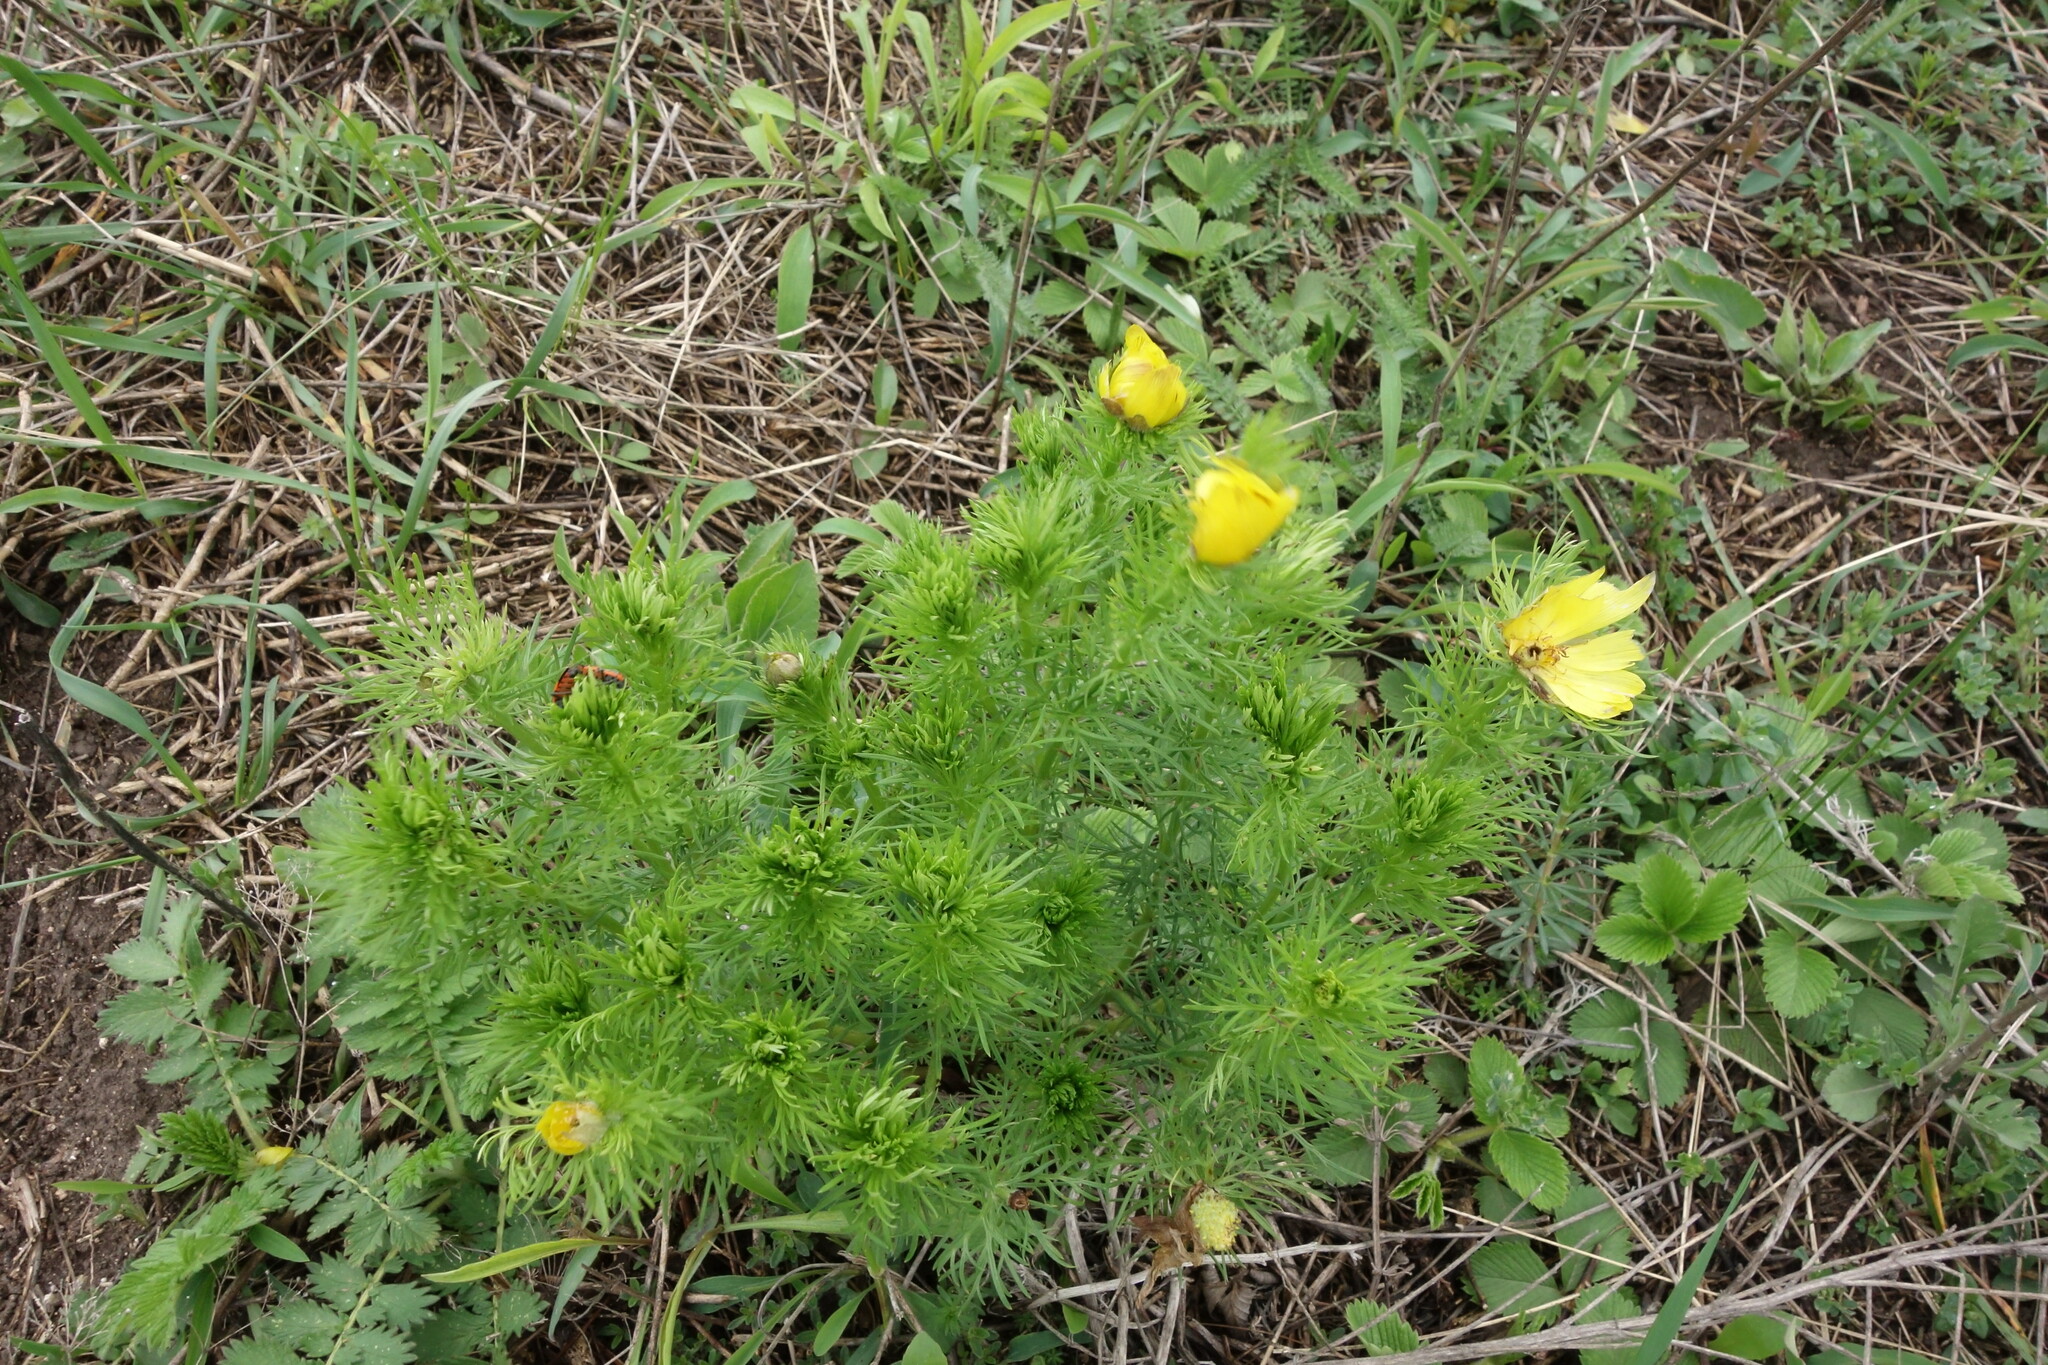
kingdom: Plantae
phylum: Tracheophyta
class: Magnoliopsida
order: Ranunculales
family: Ranunculaceae
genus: Adonis
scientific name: Adonis vernalis
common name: Yellow pheasants-eye
